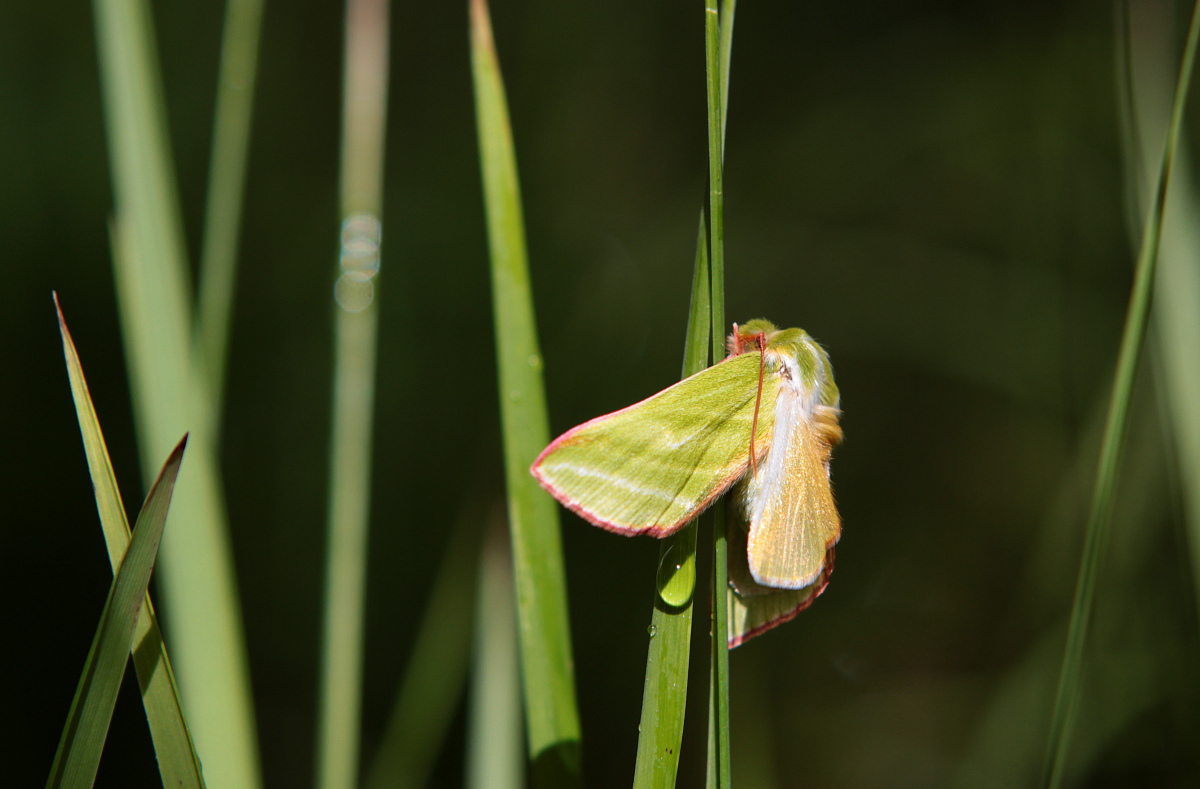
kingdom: Animalia
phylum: Arthropoda
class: Insecta
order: Lepidoptera
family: Nolidae
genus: Pseudoips
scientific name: Pseudoips prasinana
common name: Green silver-lines
